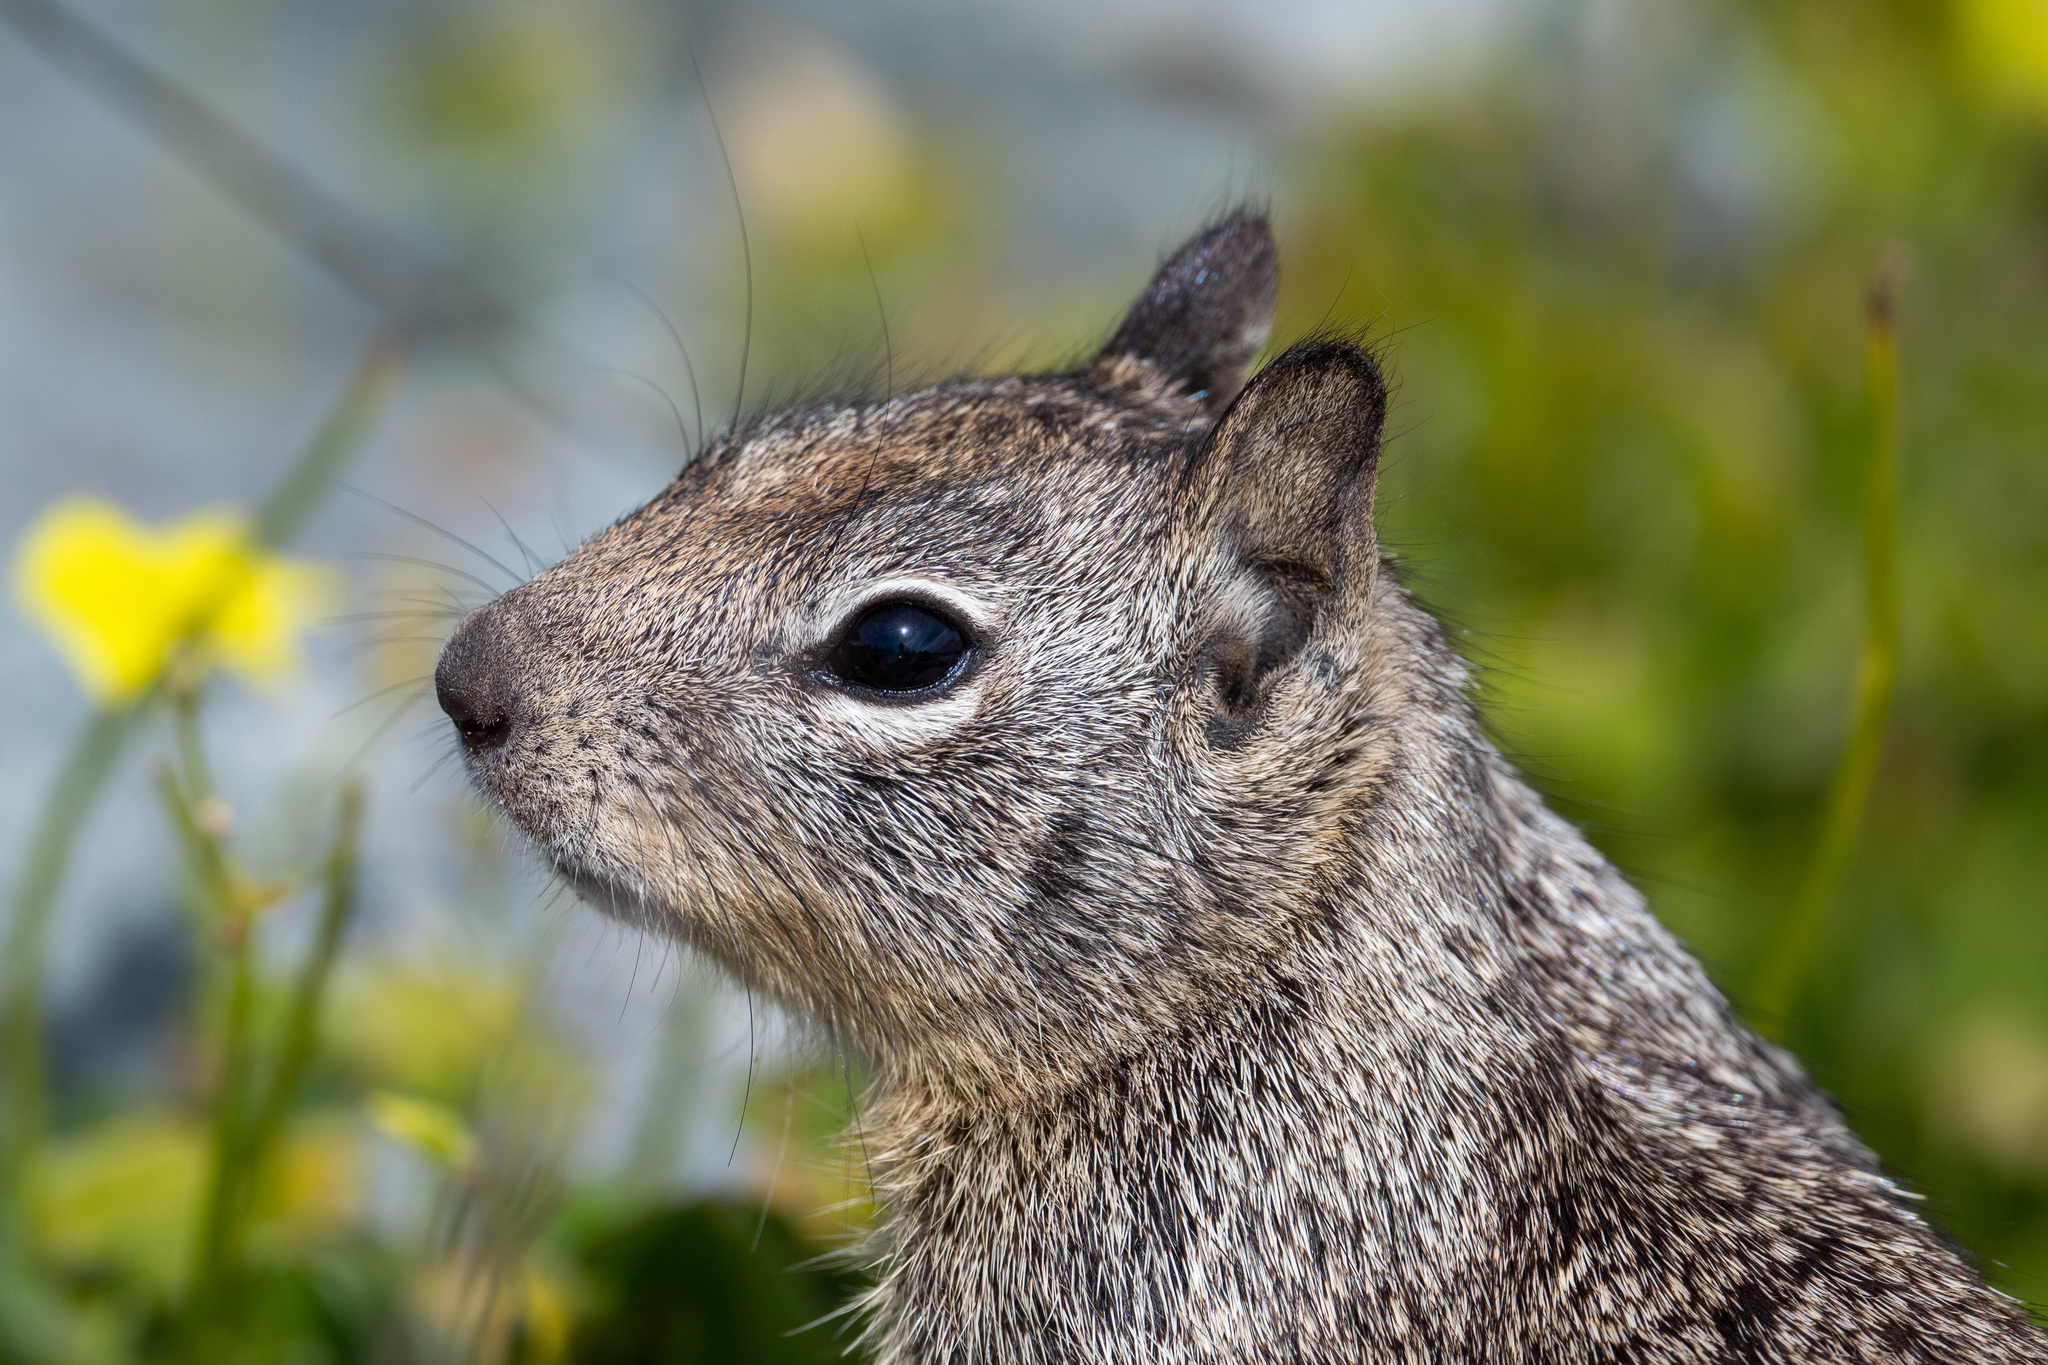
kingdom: Animalia
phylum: Chordata
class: Mammalia
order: Rodentia
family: Sciuridae
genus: Otospermophilus
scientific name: Otospermophilus beecheyi
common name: California ground squirrel
